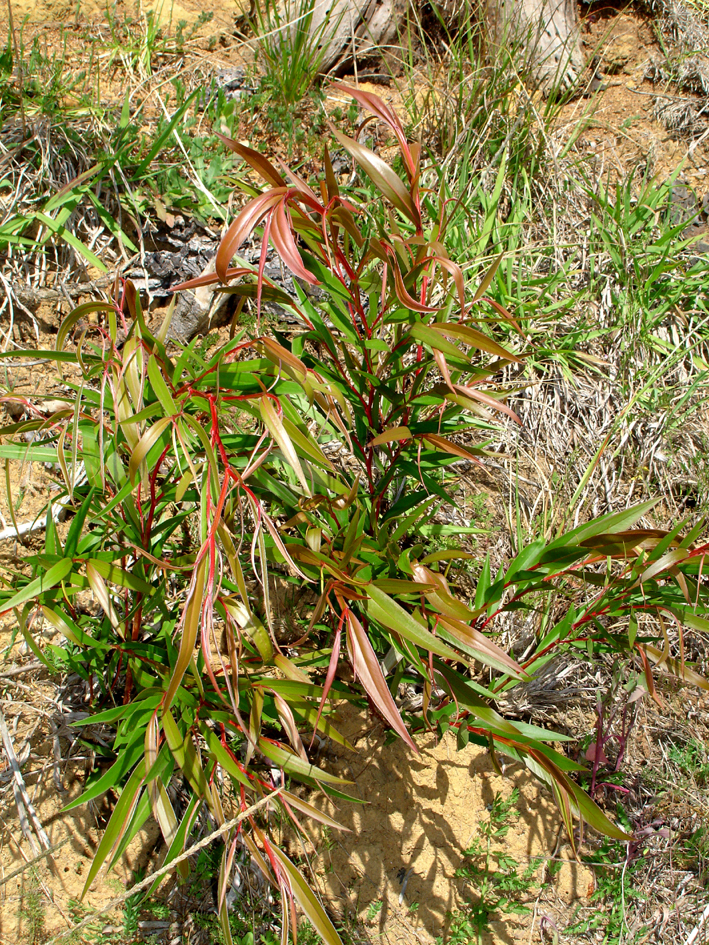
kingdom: Plantae
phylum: Tracheophyta
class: Magnoliopsida
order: Myrtales
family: Myrtaceae
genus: Agonis
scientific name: Agonis flexuosa
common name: Willow myrtle
